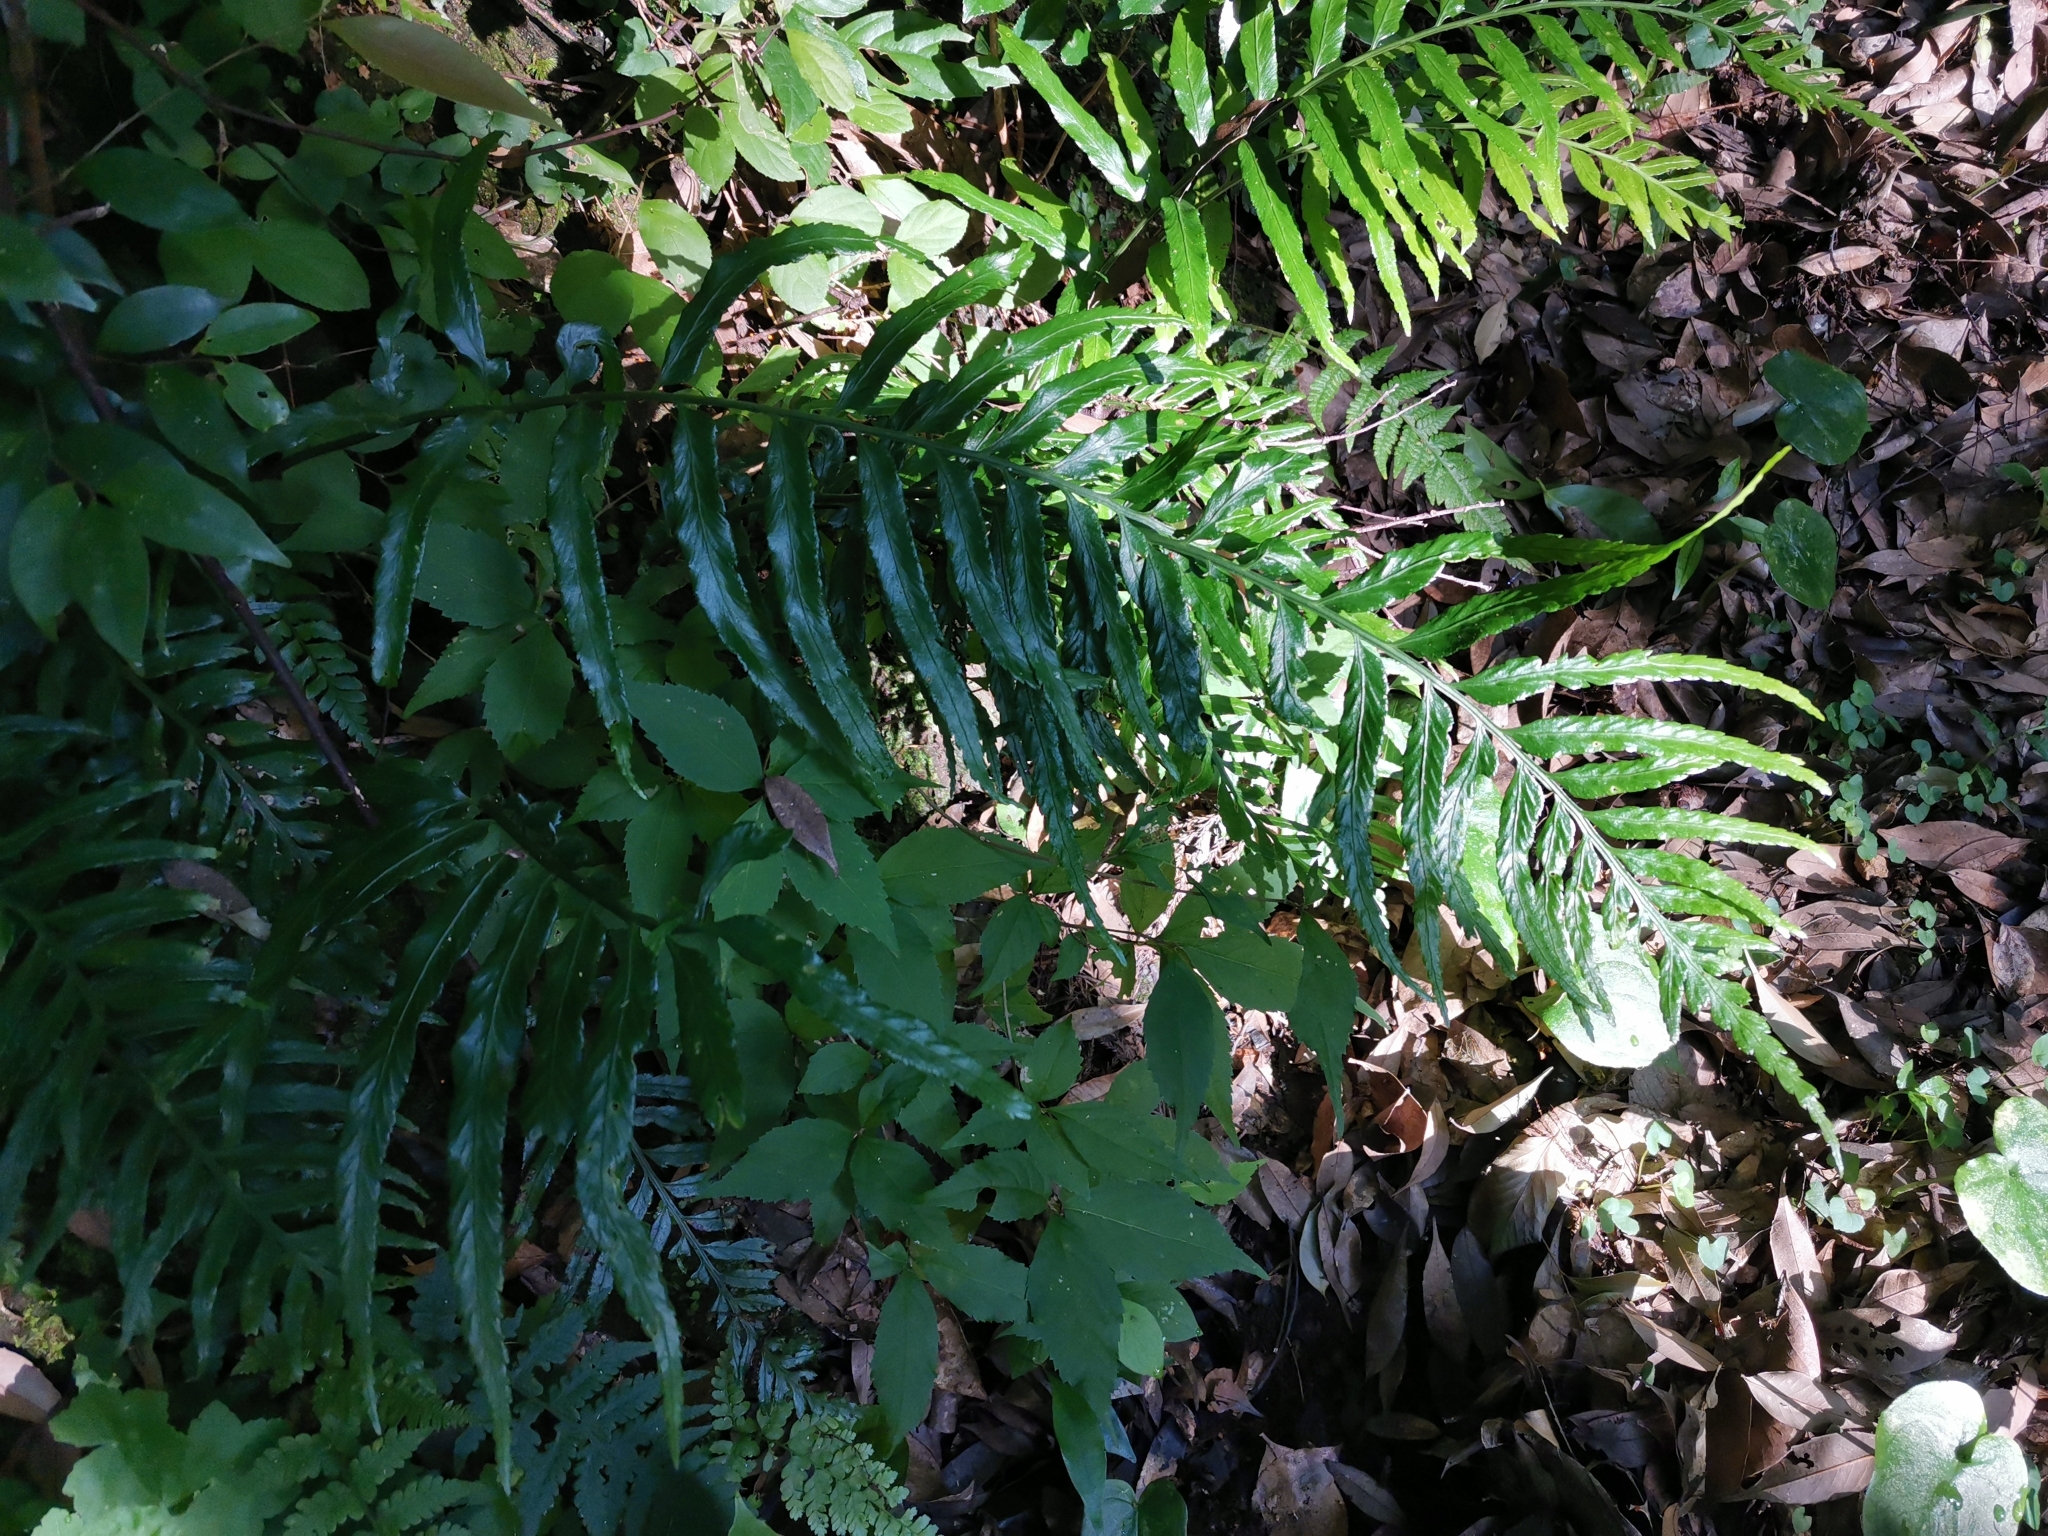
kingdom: Plantae
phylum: Tracheophyta
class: Polypodiopsida
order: Polypodiales
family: Aspleniaceae
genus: Asplenium
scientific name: Asplenium wrightii
